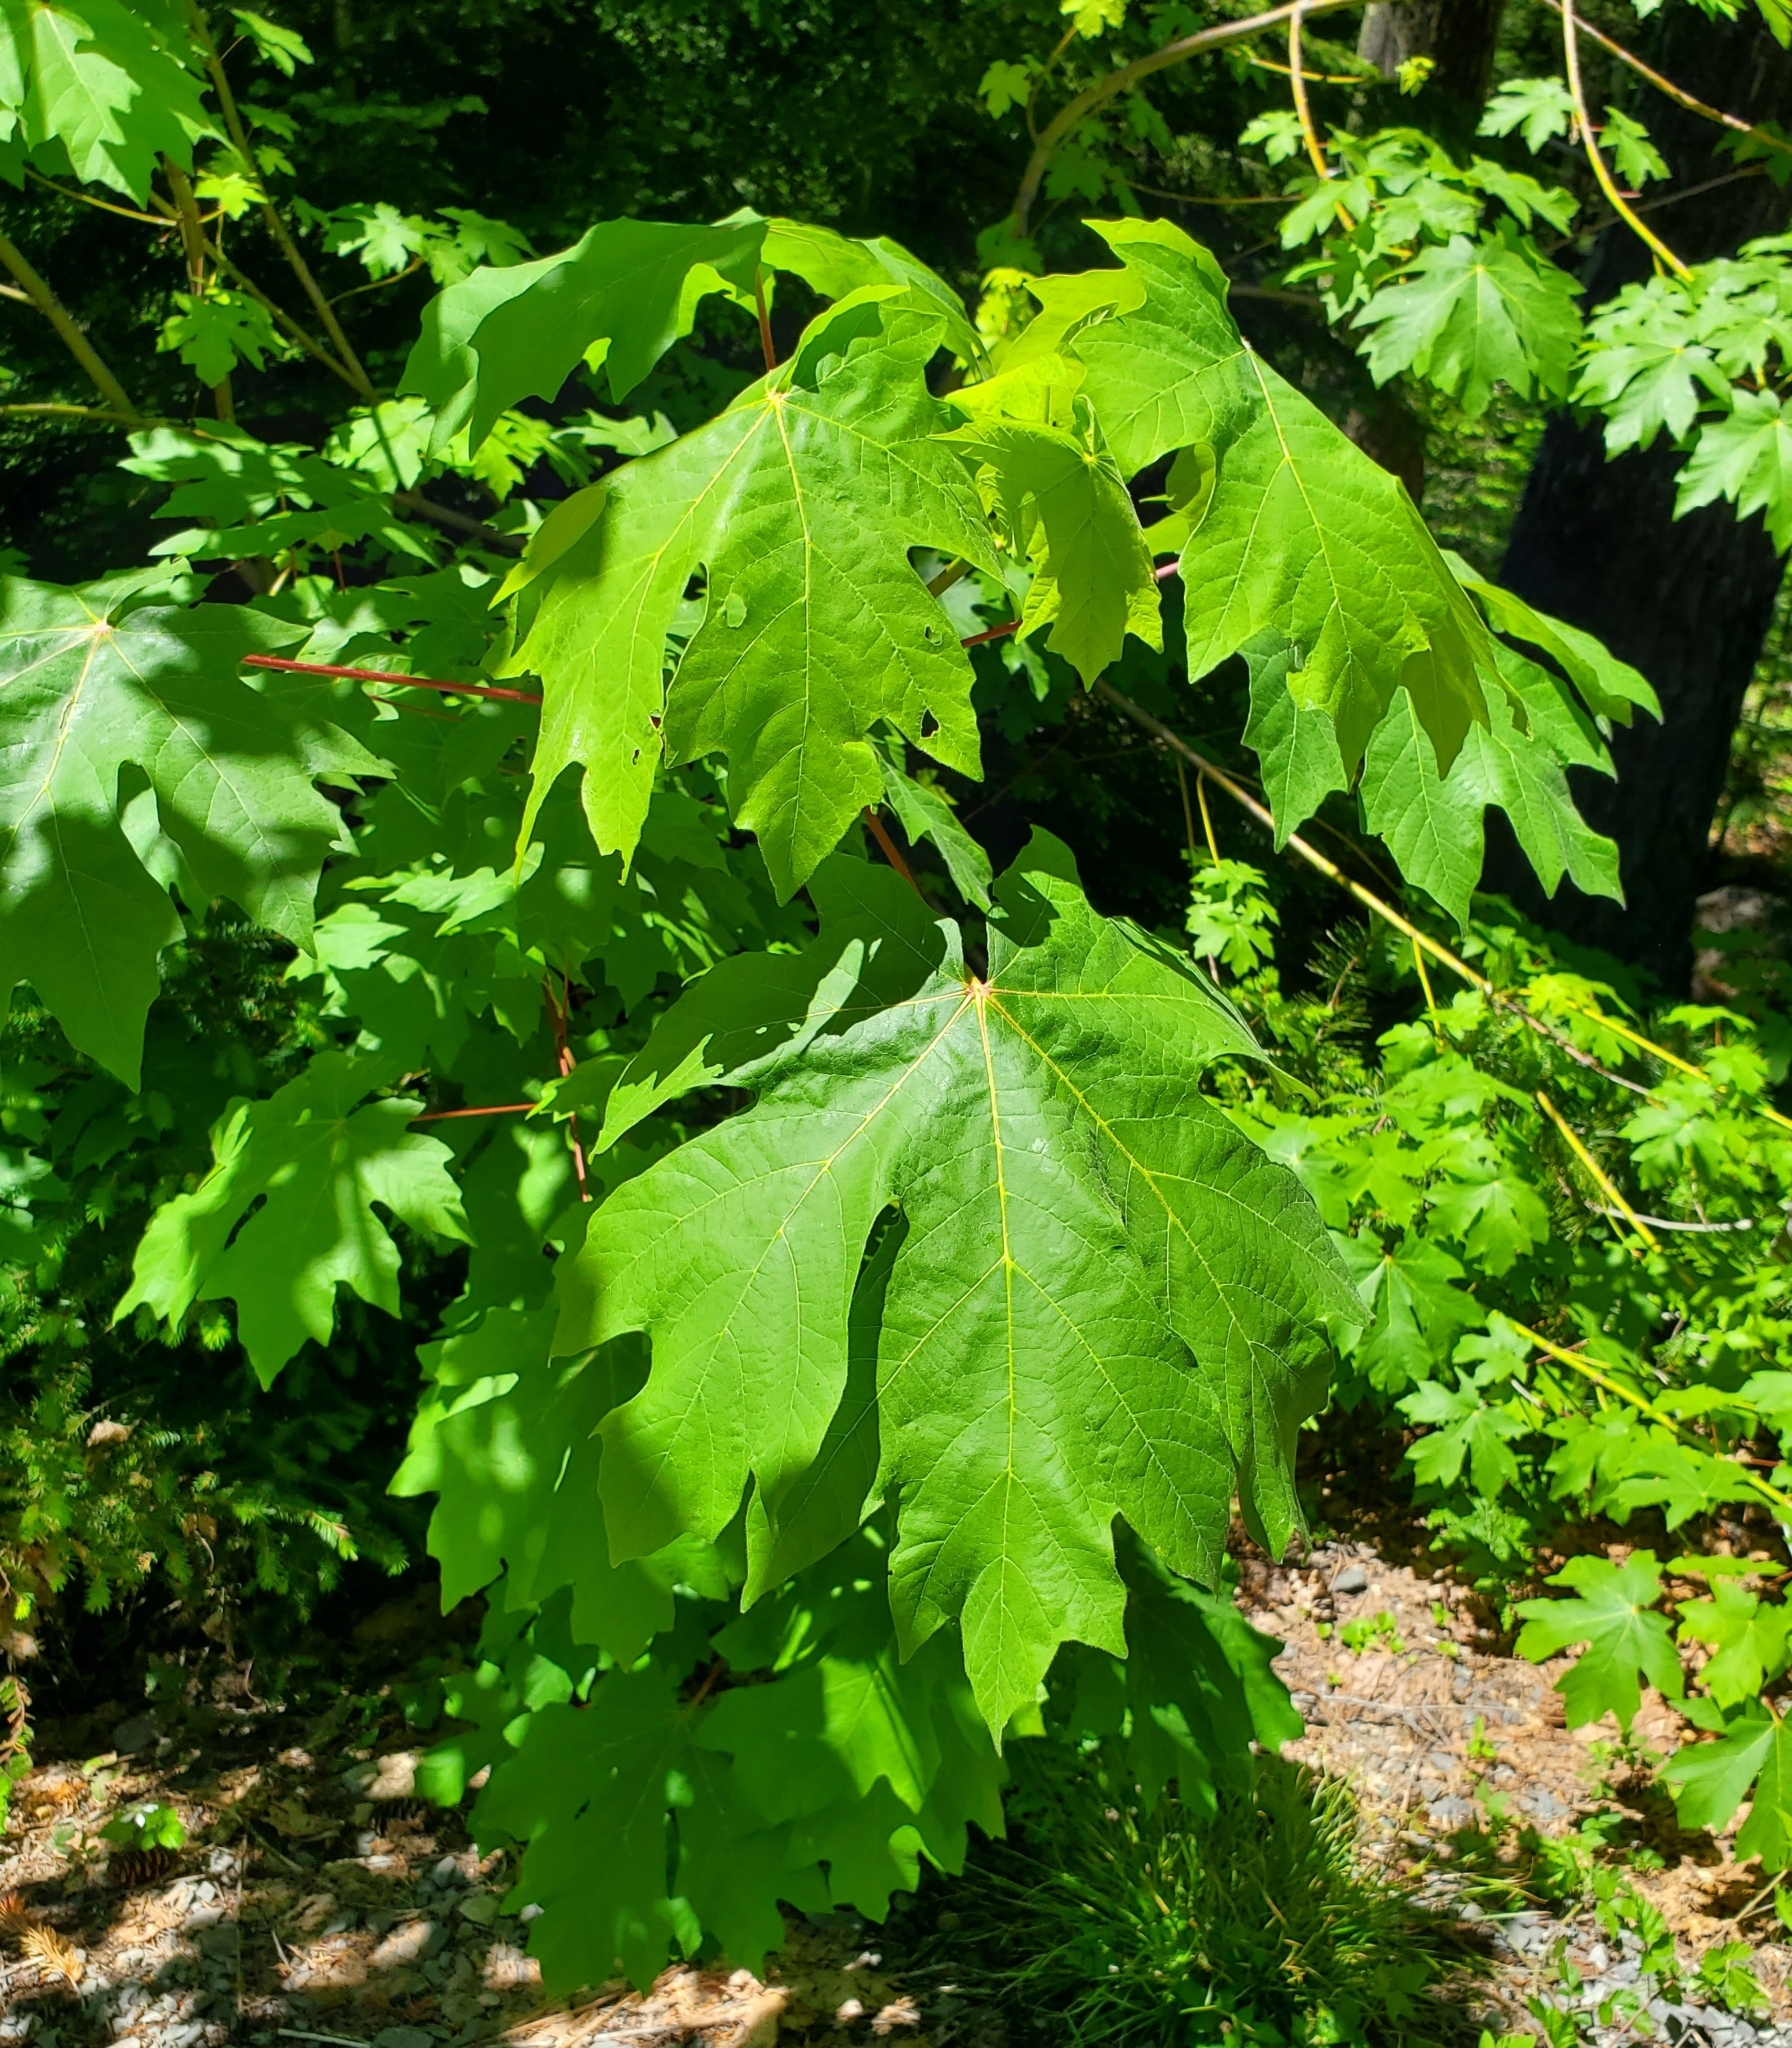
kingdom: Plantae
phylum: Tracheophyta
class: Magnoliopsida
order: Sapindales
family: Sapindaceae
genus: Acer
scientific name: Acer macrophyllum
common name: Oregon maple
